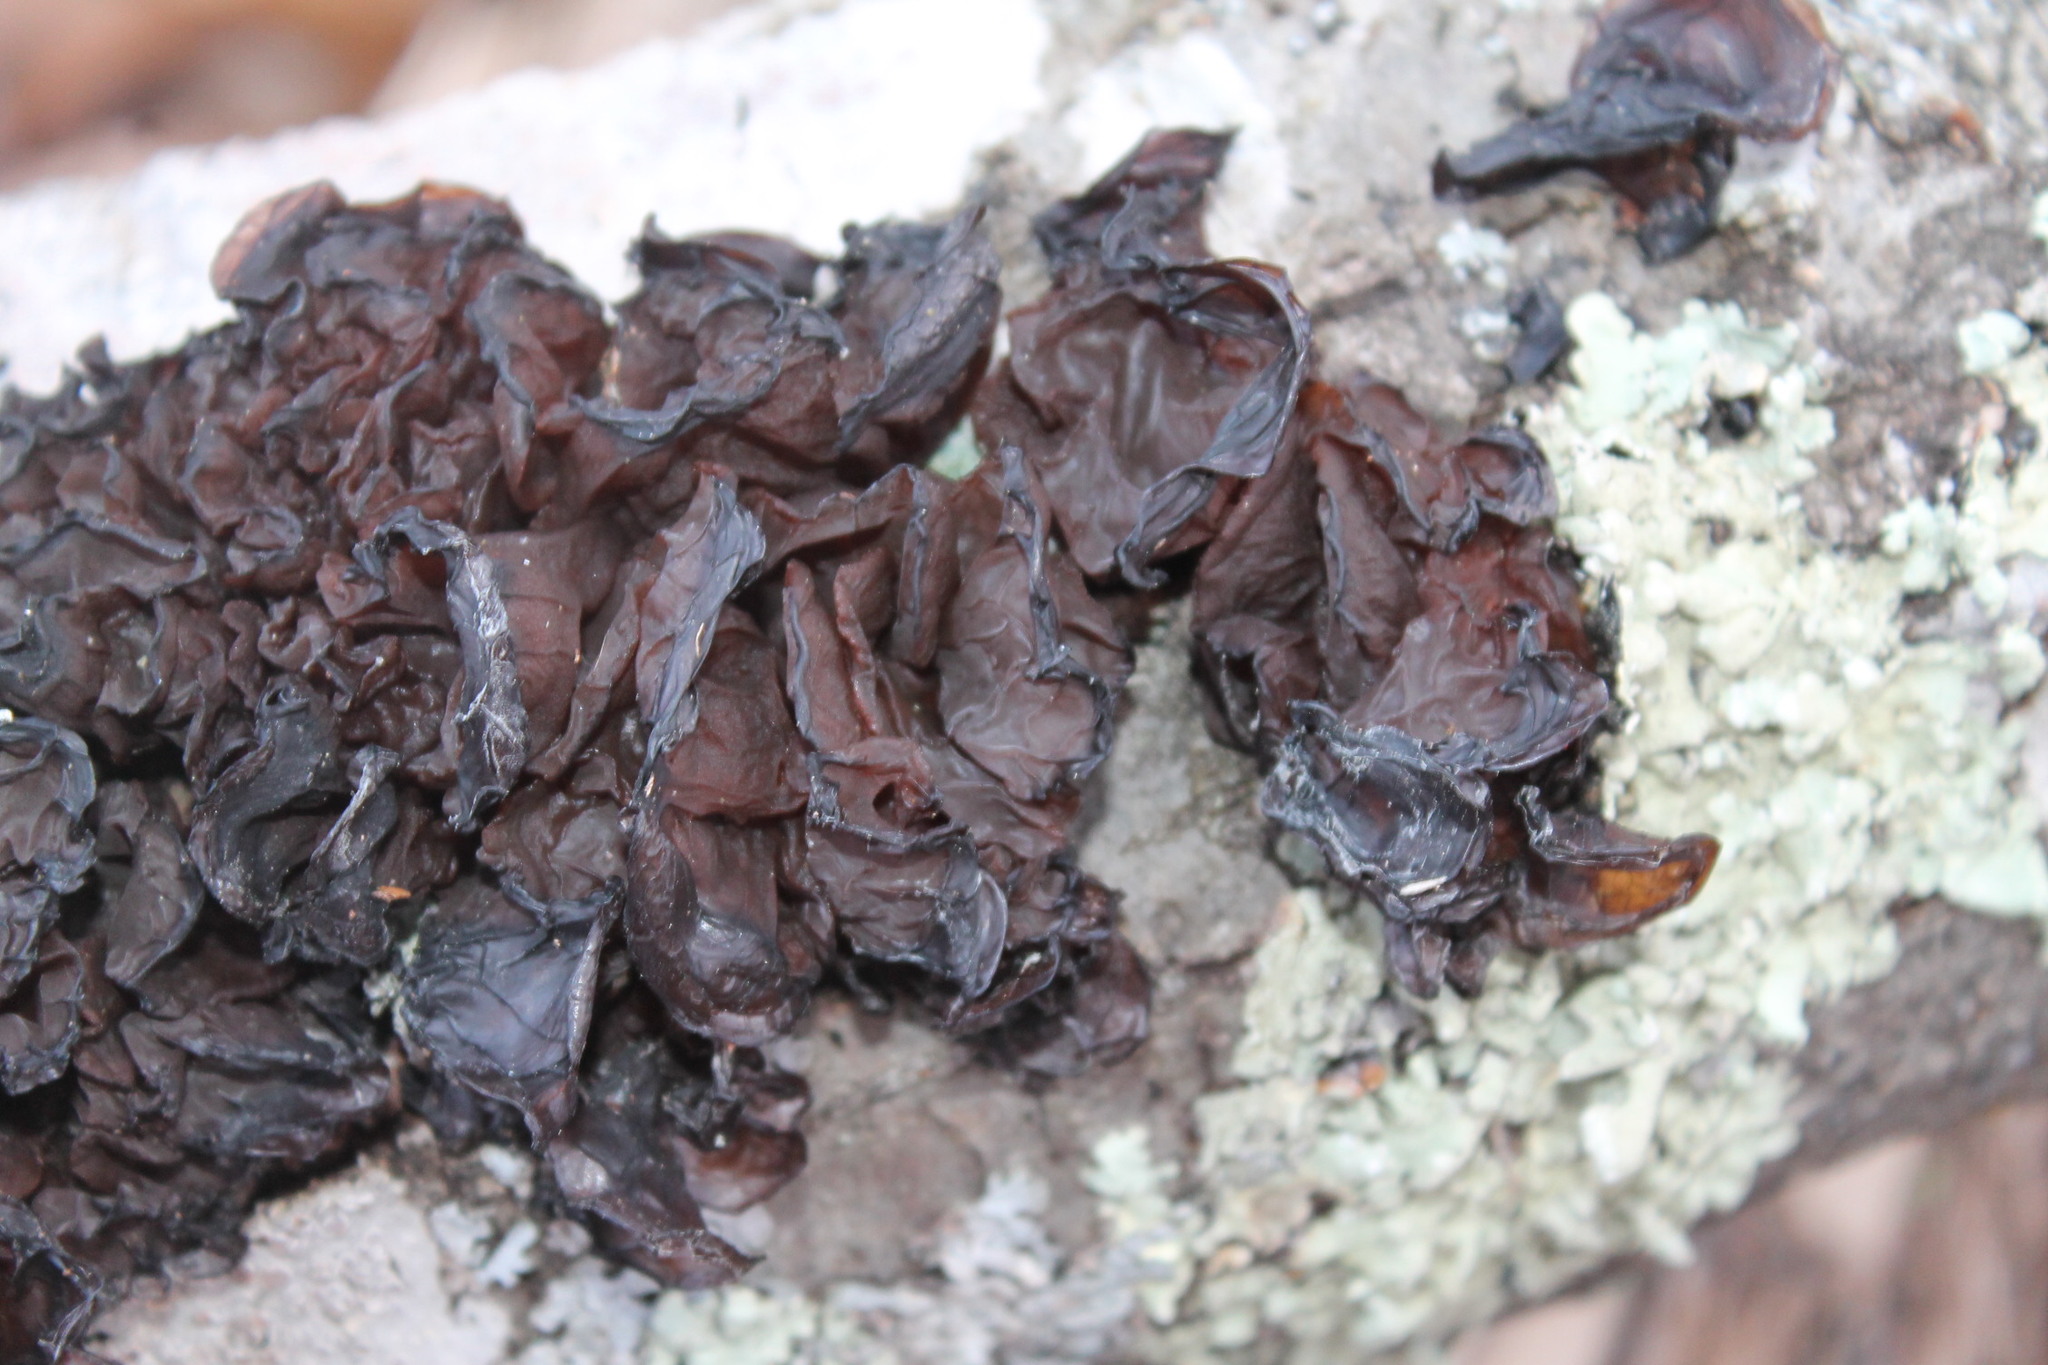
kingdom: Fungi
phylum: Basidiomycota
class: Agaricomycetes
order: Auriculariales
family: Auriculariaceae
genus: Exidia
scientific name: Exidia
